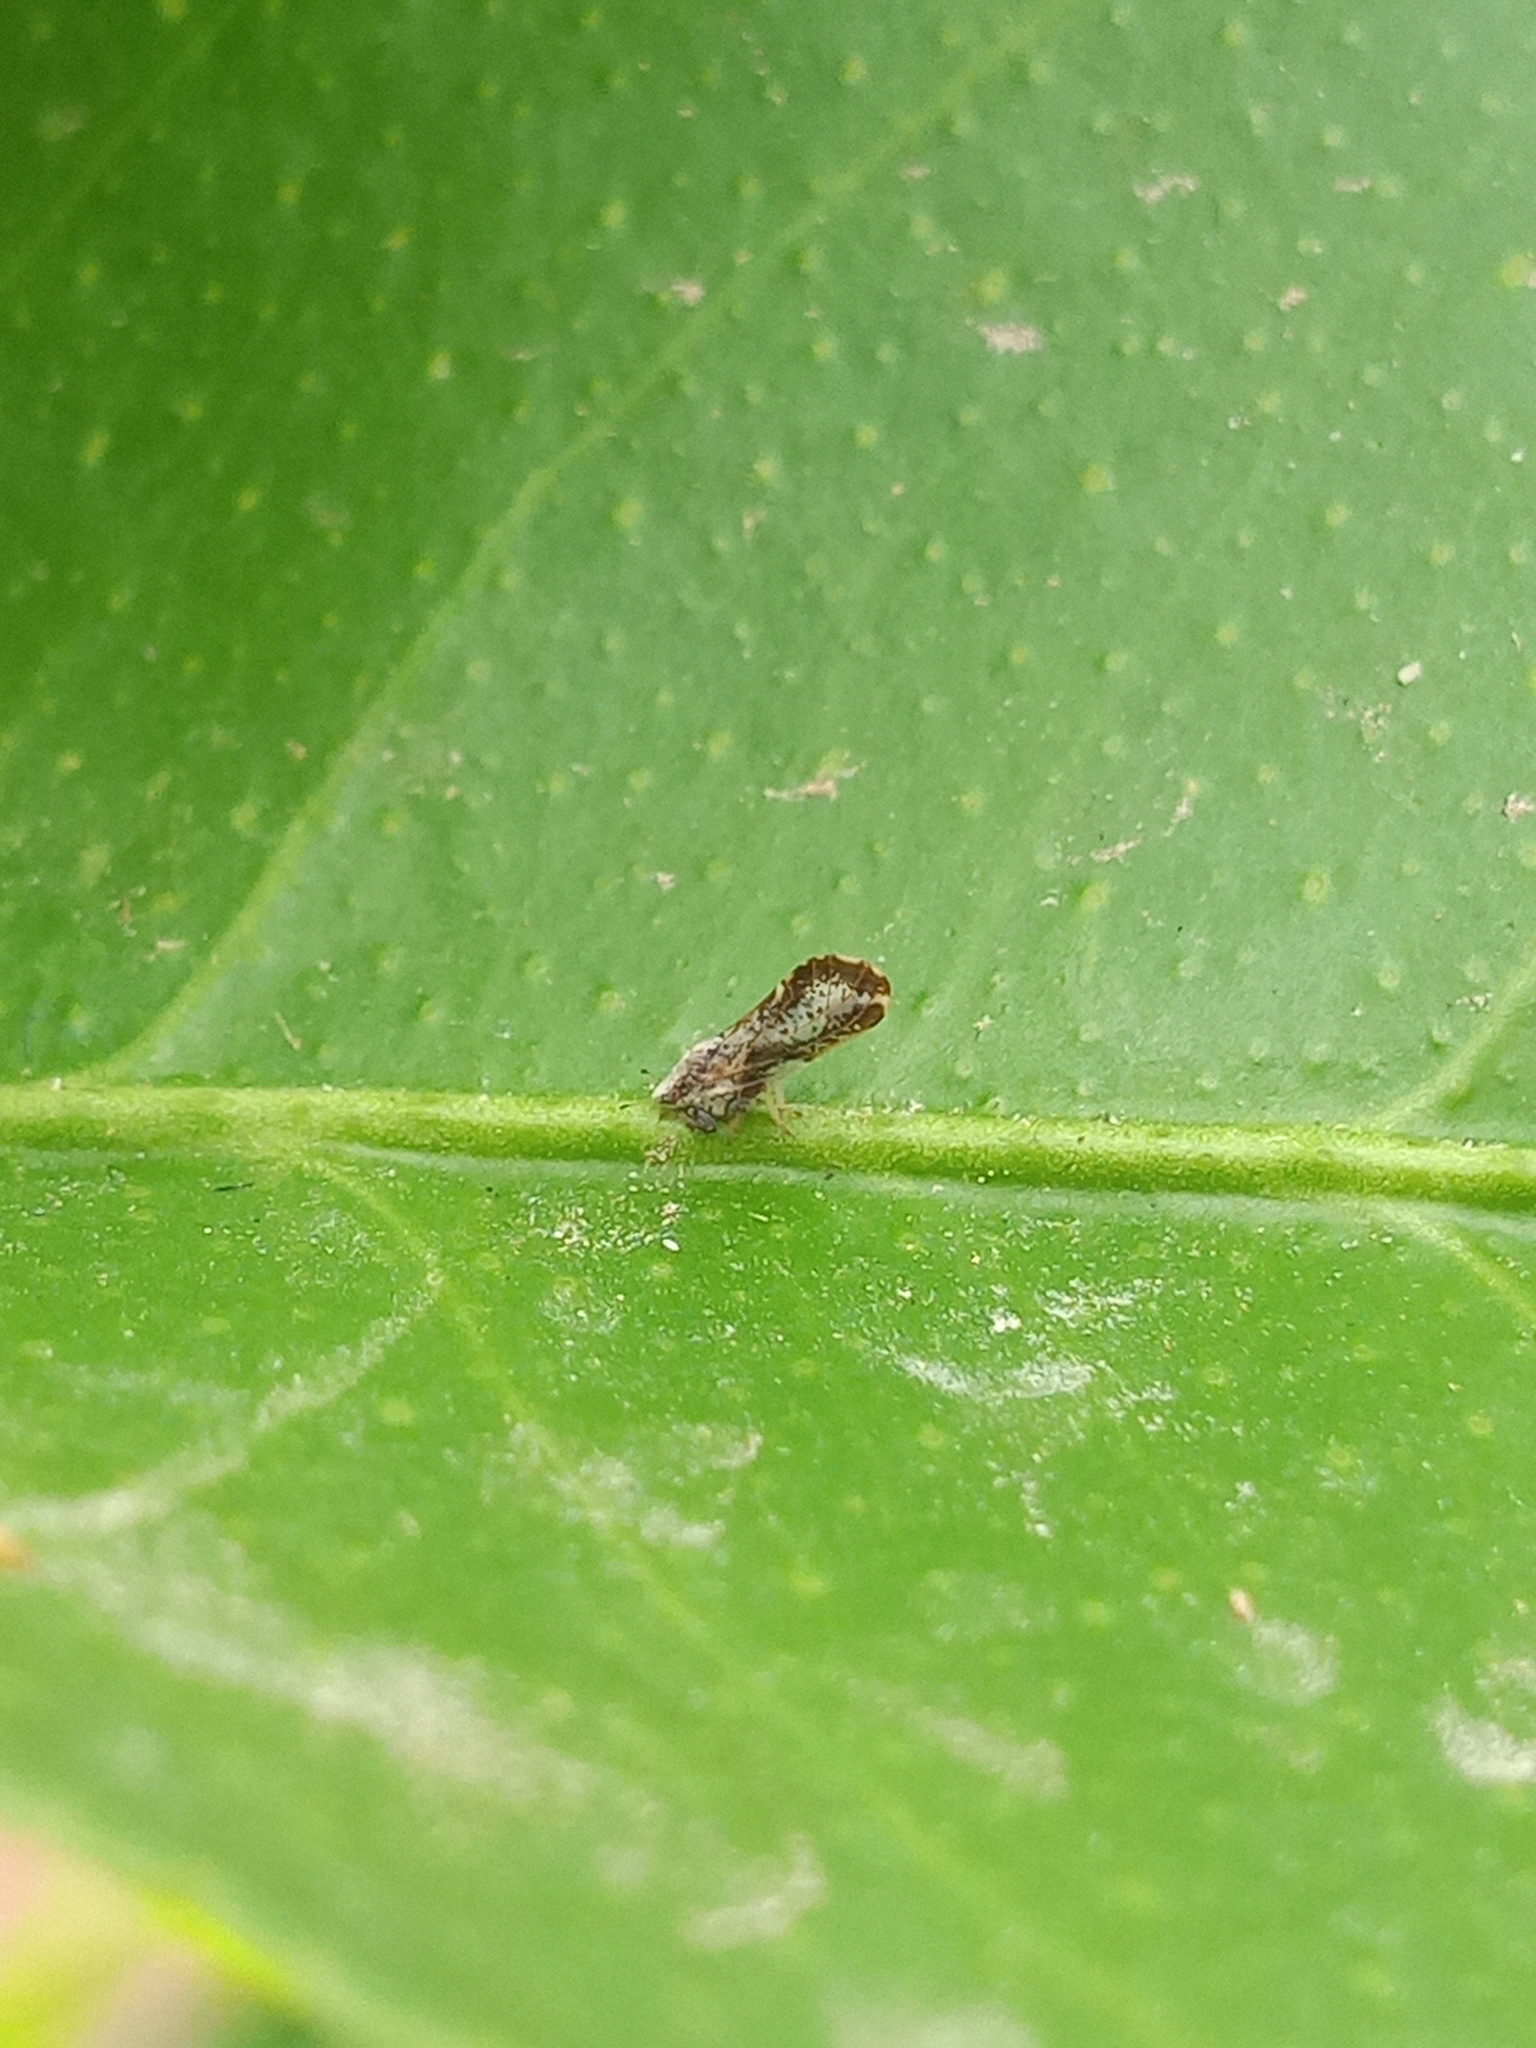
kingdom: Animalia
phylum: Arthropoda
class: Insecta
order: Hemiptera
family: Liviidae
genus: Diaphorina
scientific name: Diaphorina citri
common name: Asian citrus psyllid
